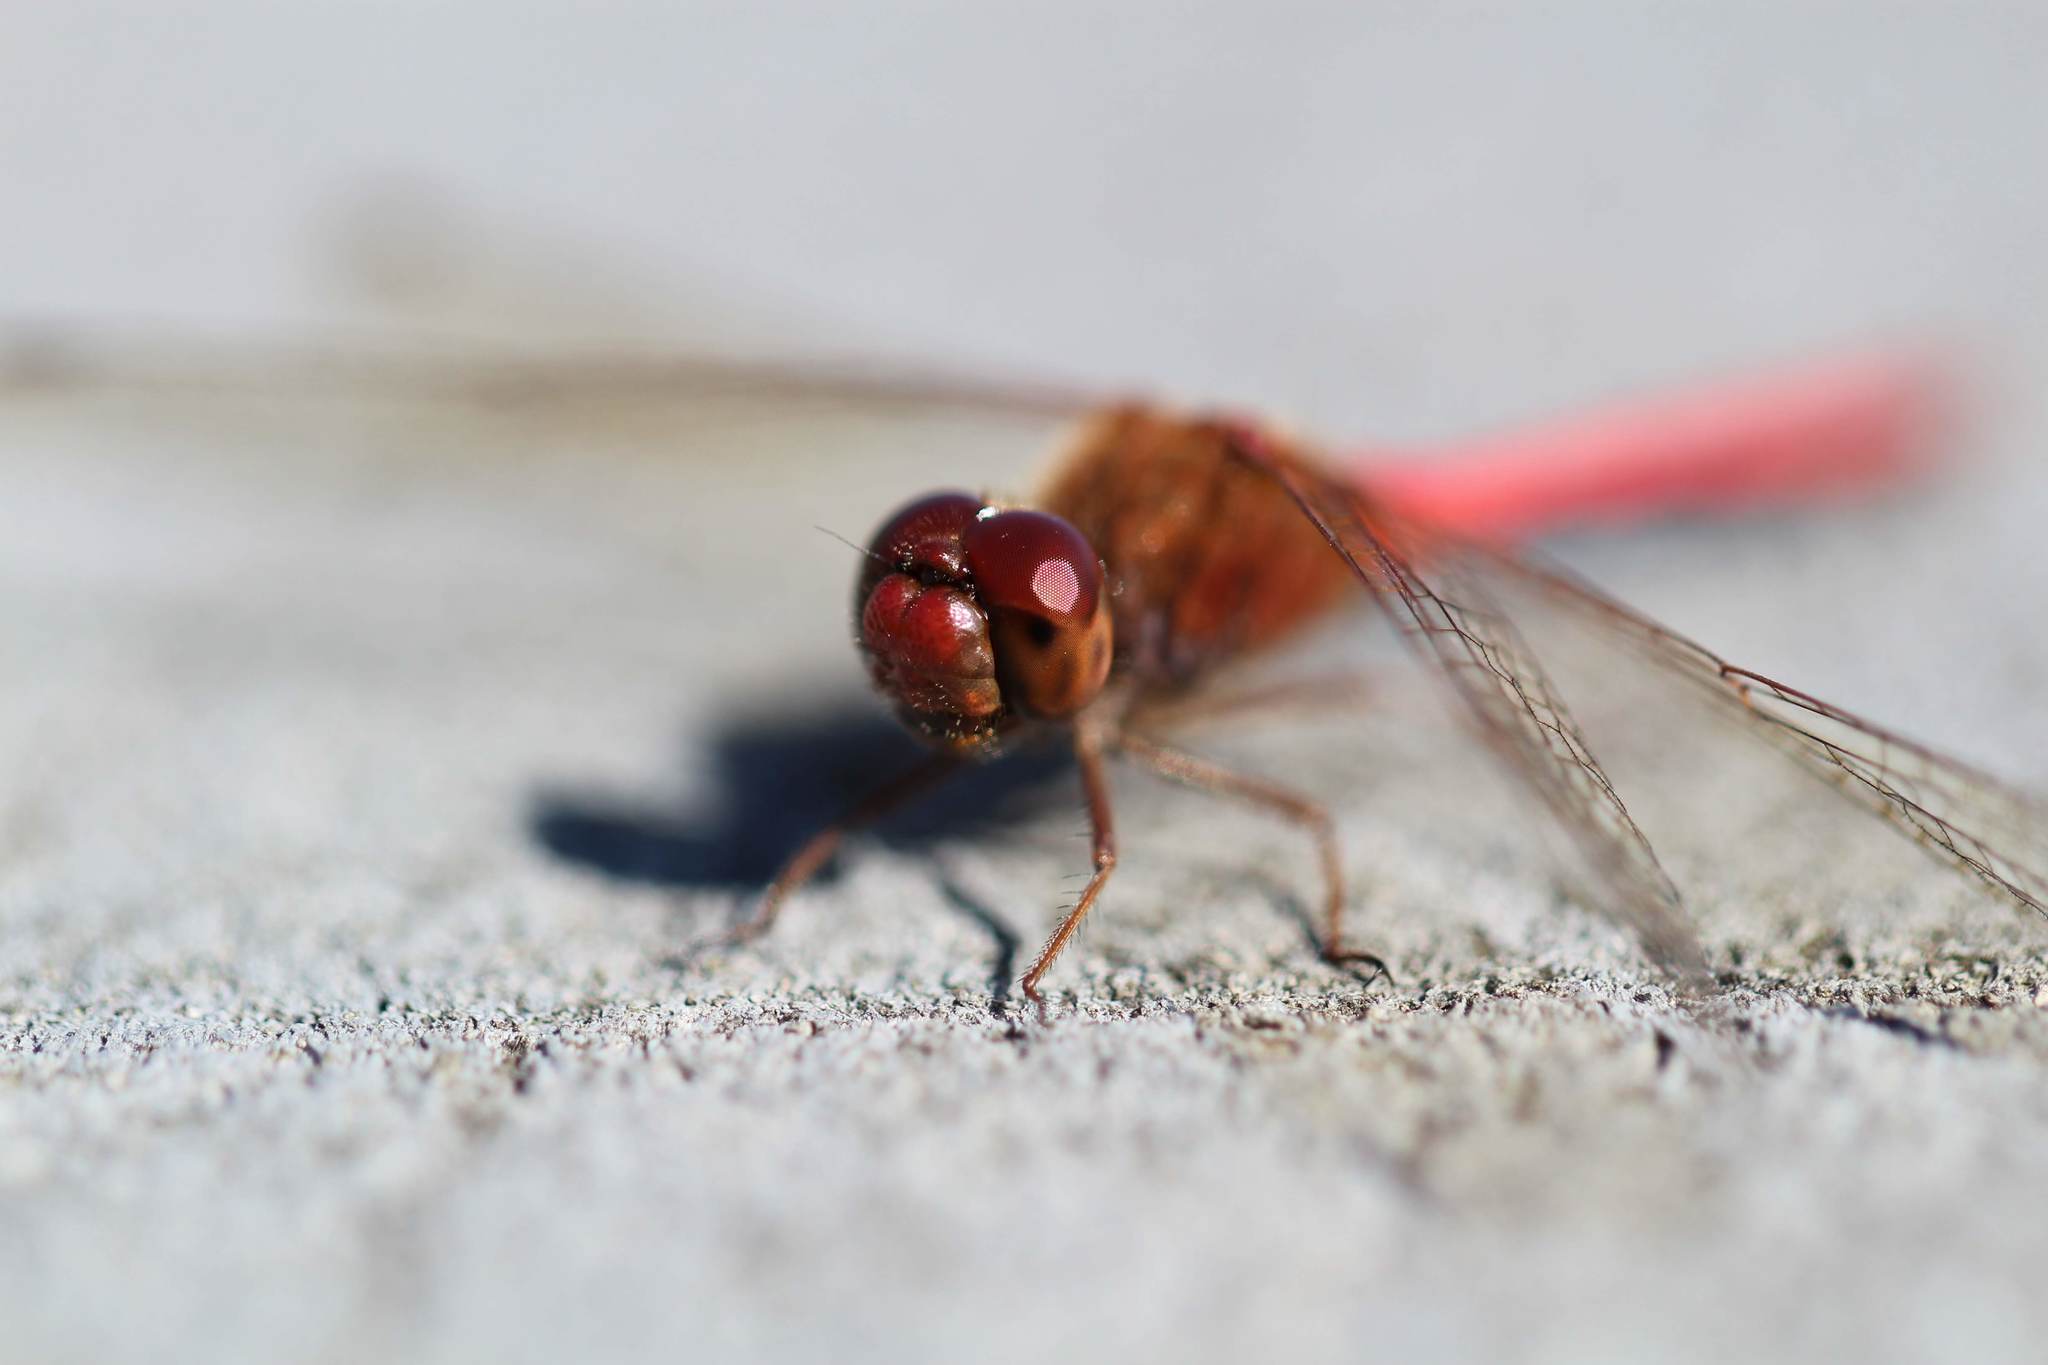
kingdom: Animalia
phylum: Arthropoda
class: Insecta
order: Odonata
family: Libellulidae
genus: Sympetrum
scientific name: Sympetrum vicinum
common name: Autumn meadowhawk
